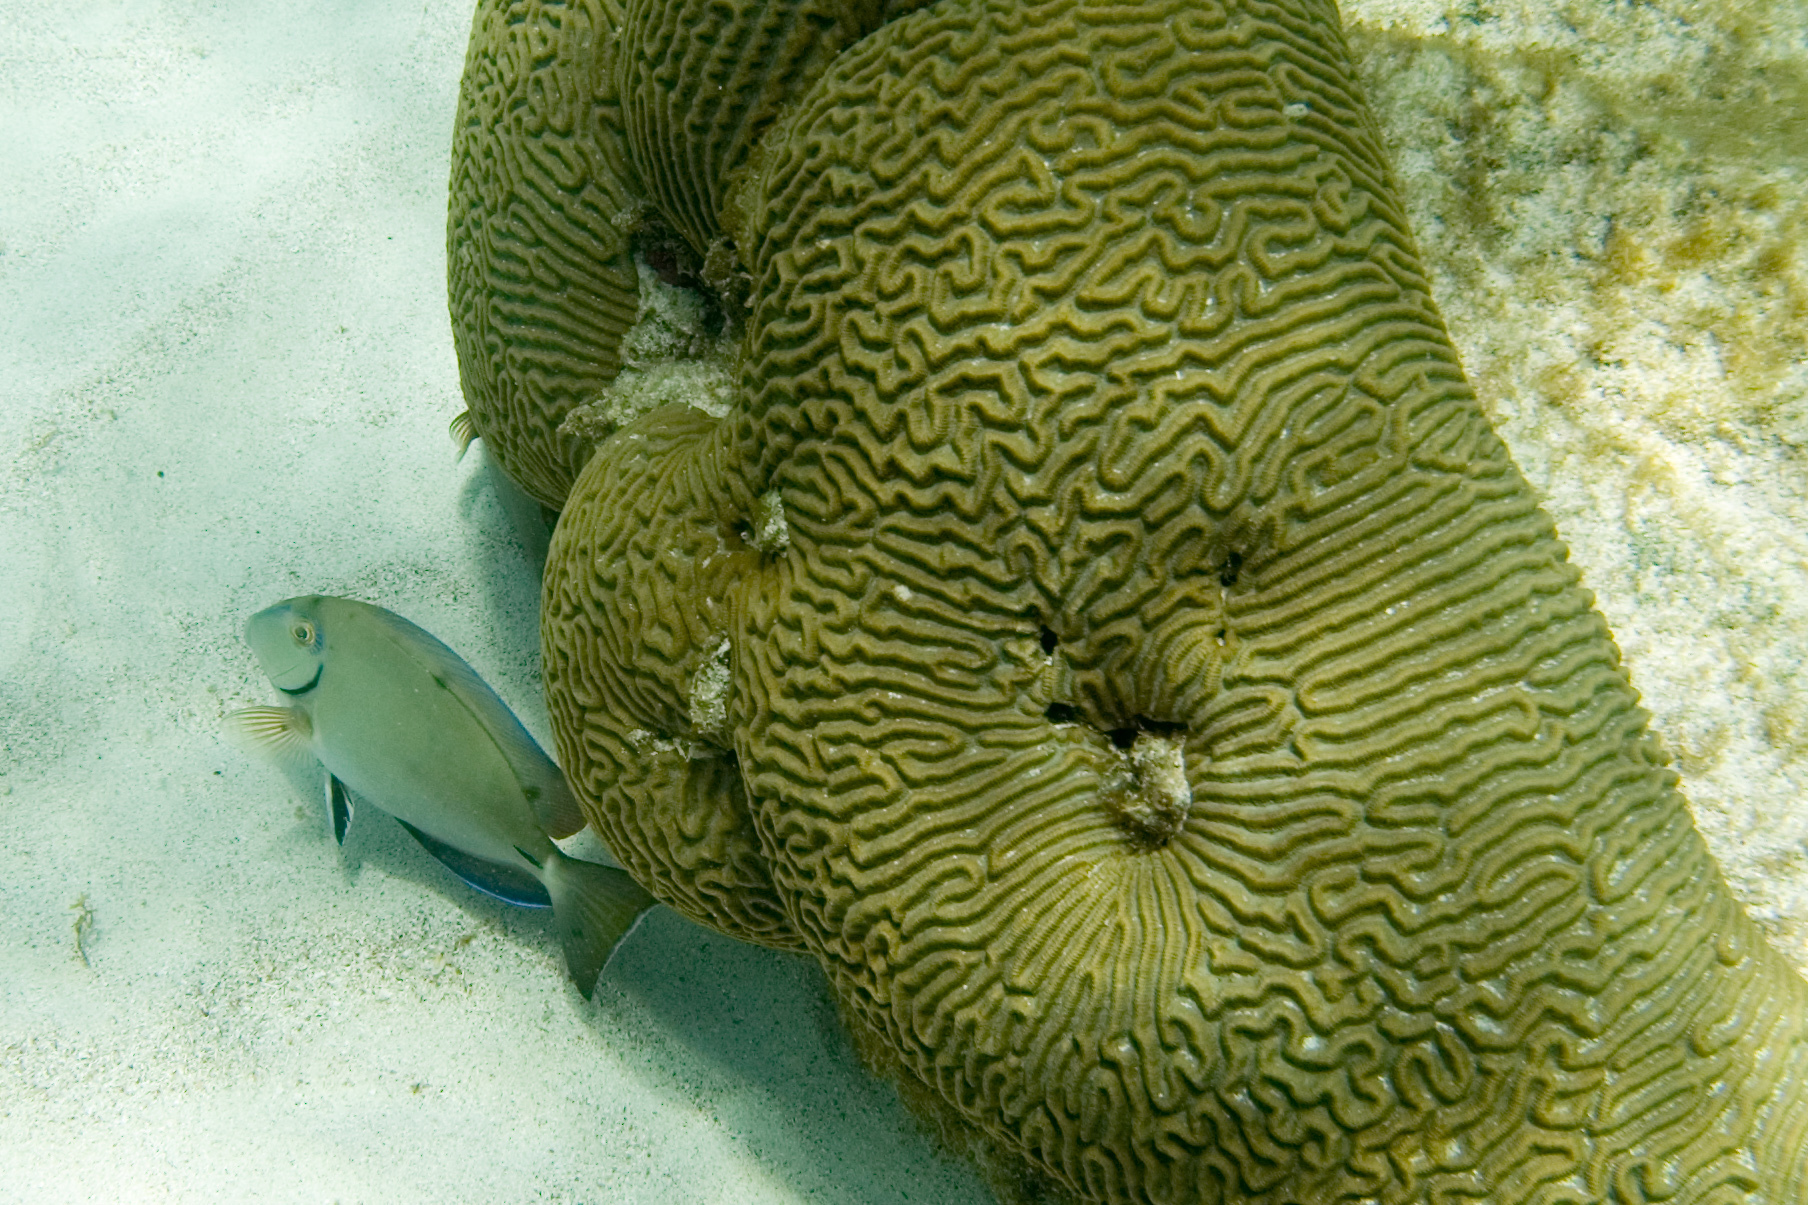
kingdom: Animalia
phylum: Cnidaria
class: Anthozoa
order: Scleractinia
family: Faviidae
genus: Pseudodiploria
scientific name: Pseudodiploria strigosa
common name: Symmetrical brain coral
